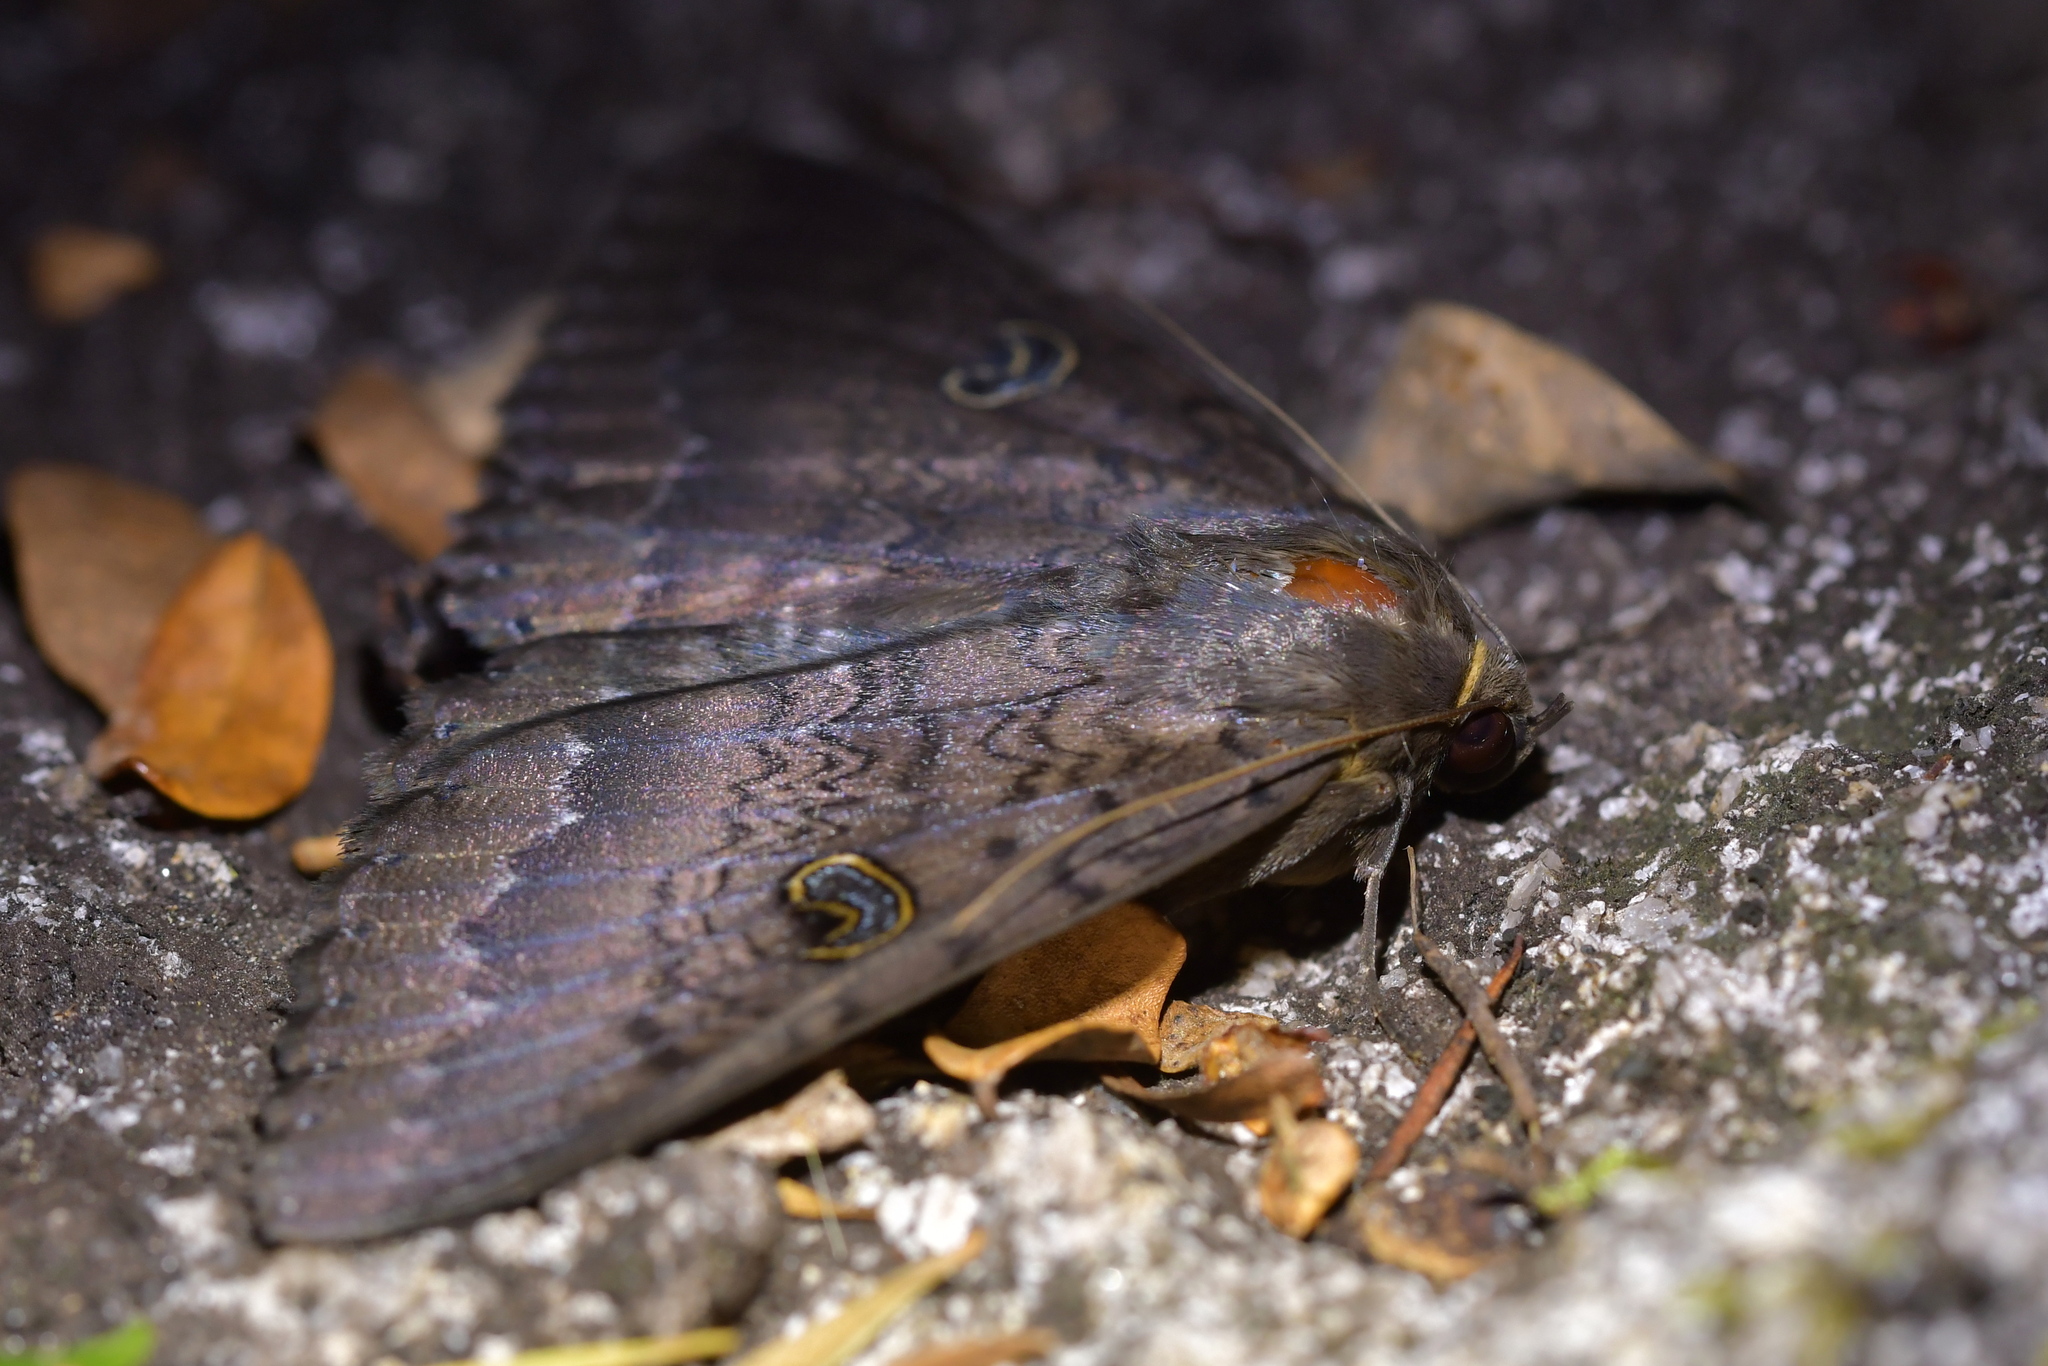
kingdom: Animalia
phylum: Arthropoda
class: Insecta
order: Lepidoptera
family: Erebidae
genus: Dasypodia
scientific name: Dasypodia cymatodes
